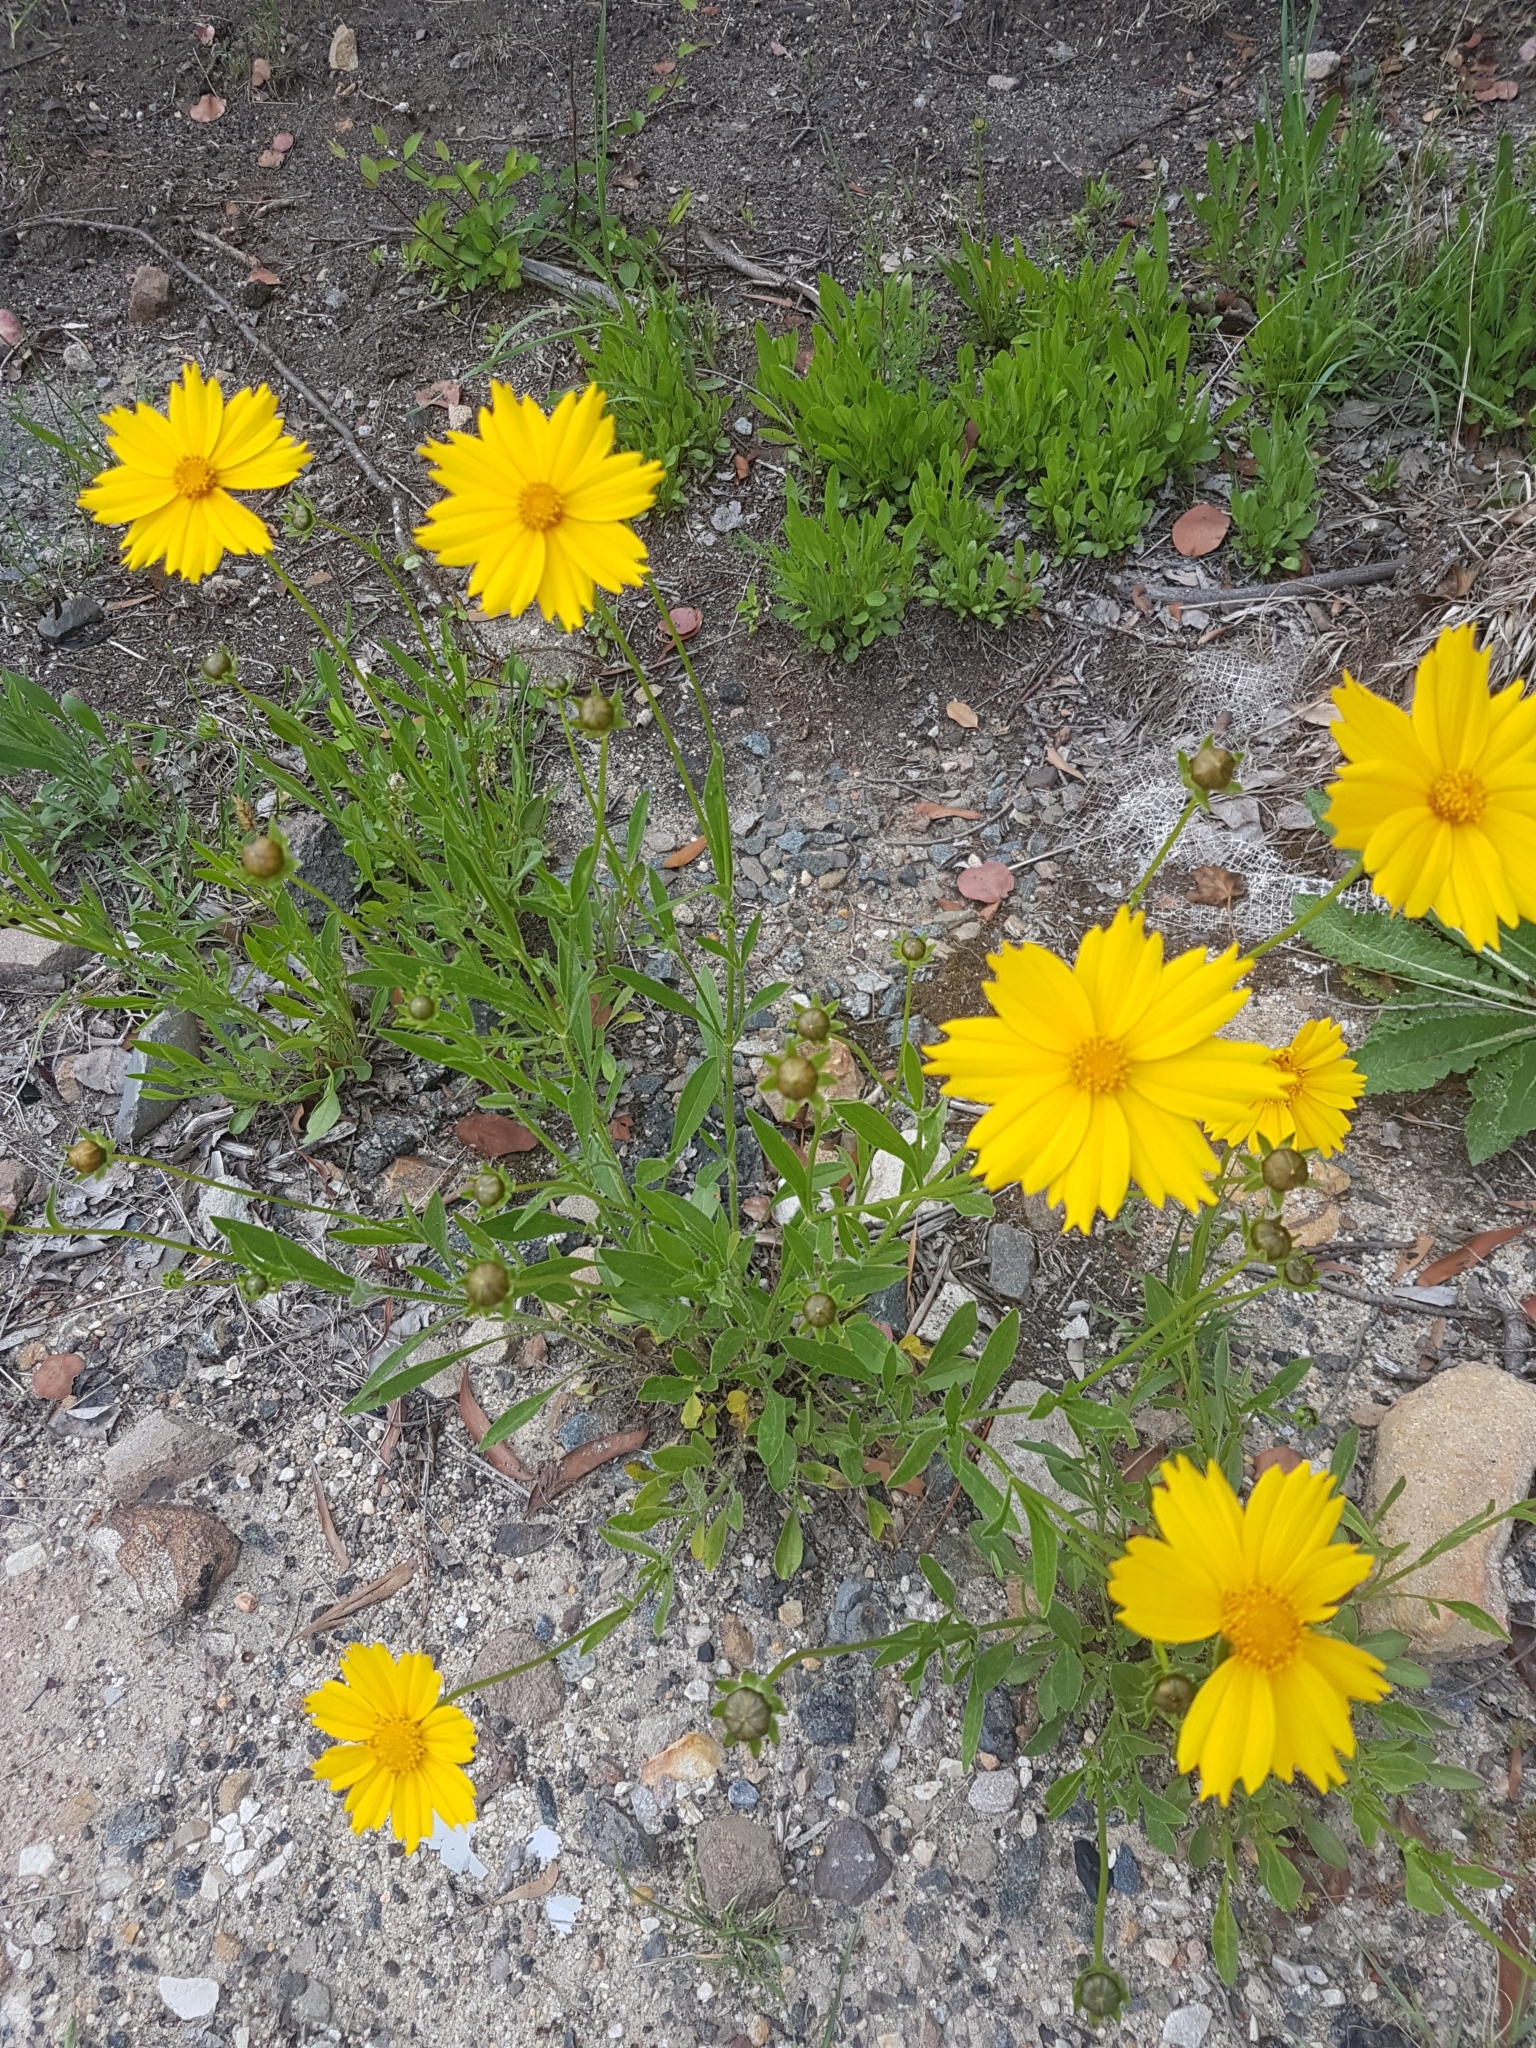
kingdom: Plantae
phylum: Tracheophyta
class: Magnoliopsida
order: Asterales
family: Asteraceae
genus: Coreopsis
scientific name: Coreopsis lanceolata
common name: Garden coreopsis
